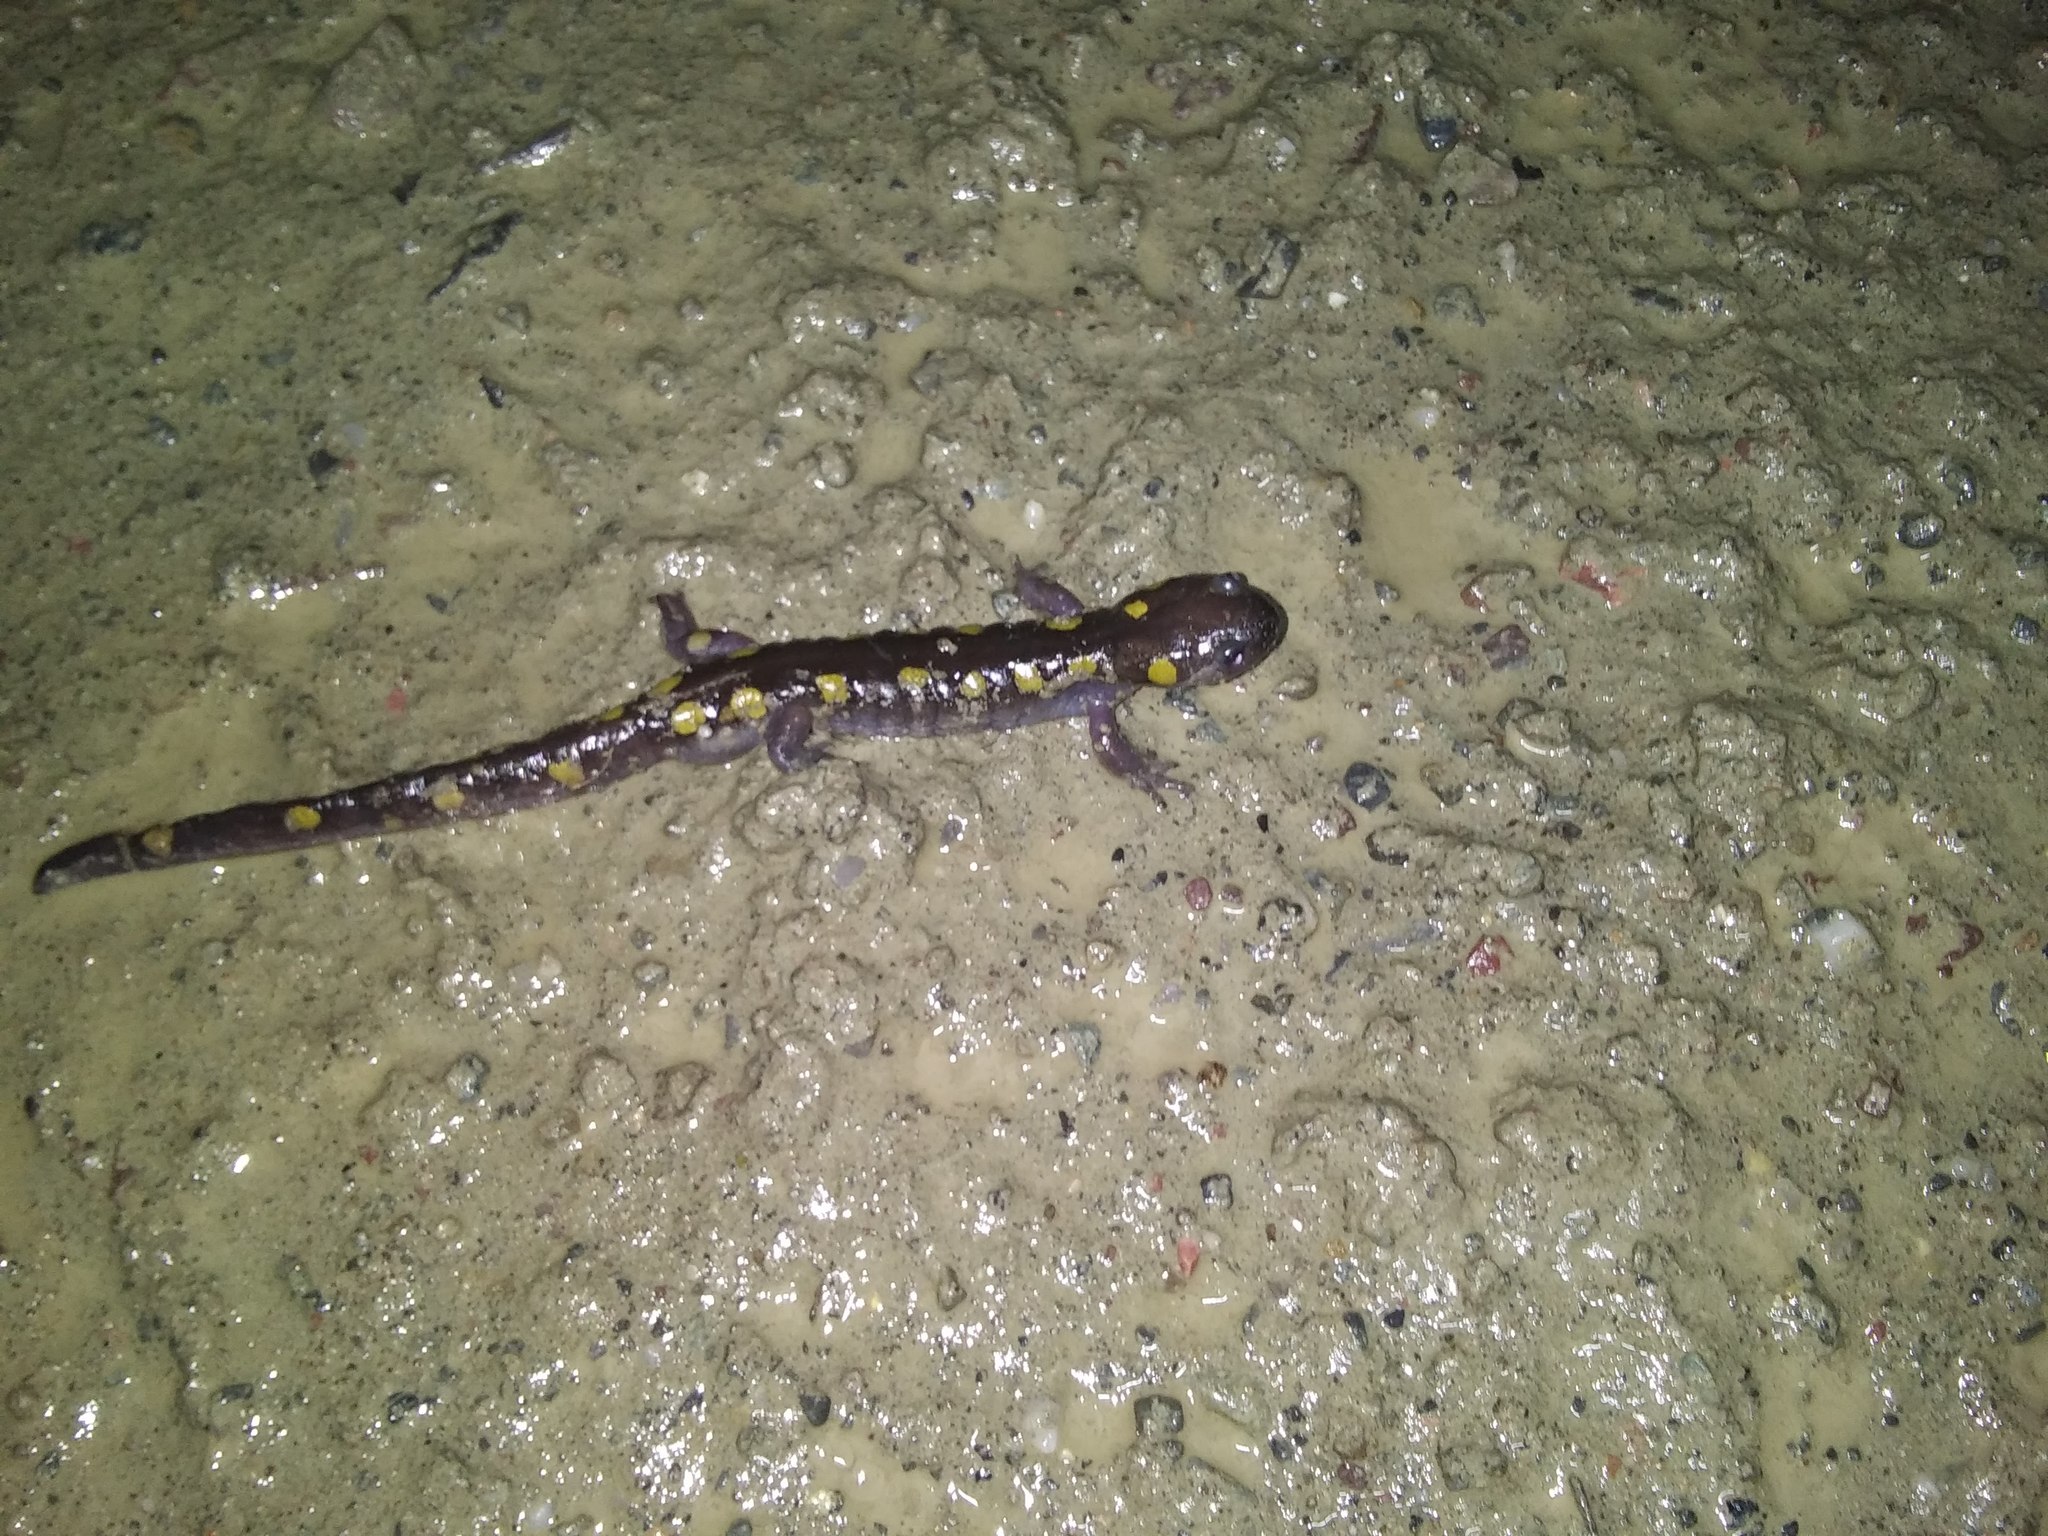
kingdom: Animalia
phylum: Chordata
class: Amphibia
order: Caudata
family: Ambystomatidae
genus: Ambystoma
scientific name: Ambystoma maculatum
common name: Spotted salamander
